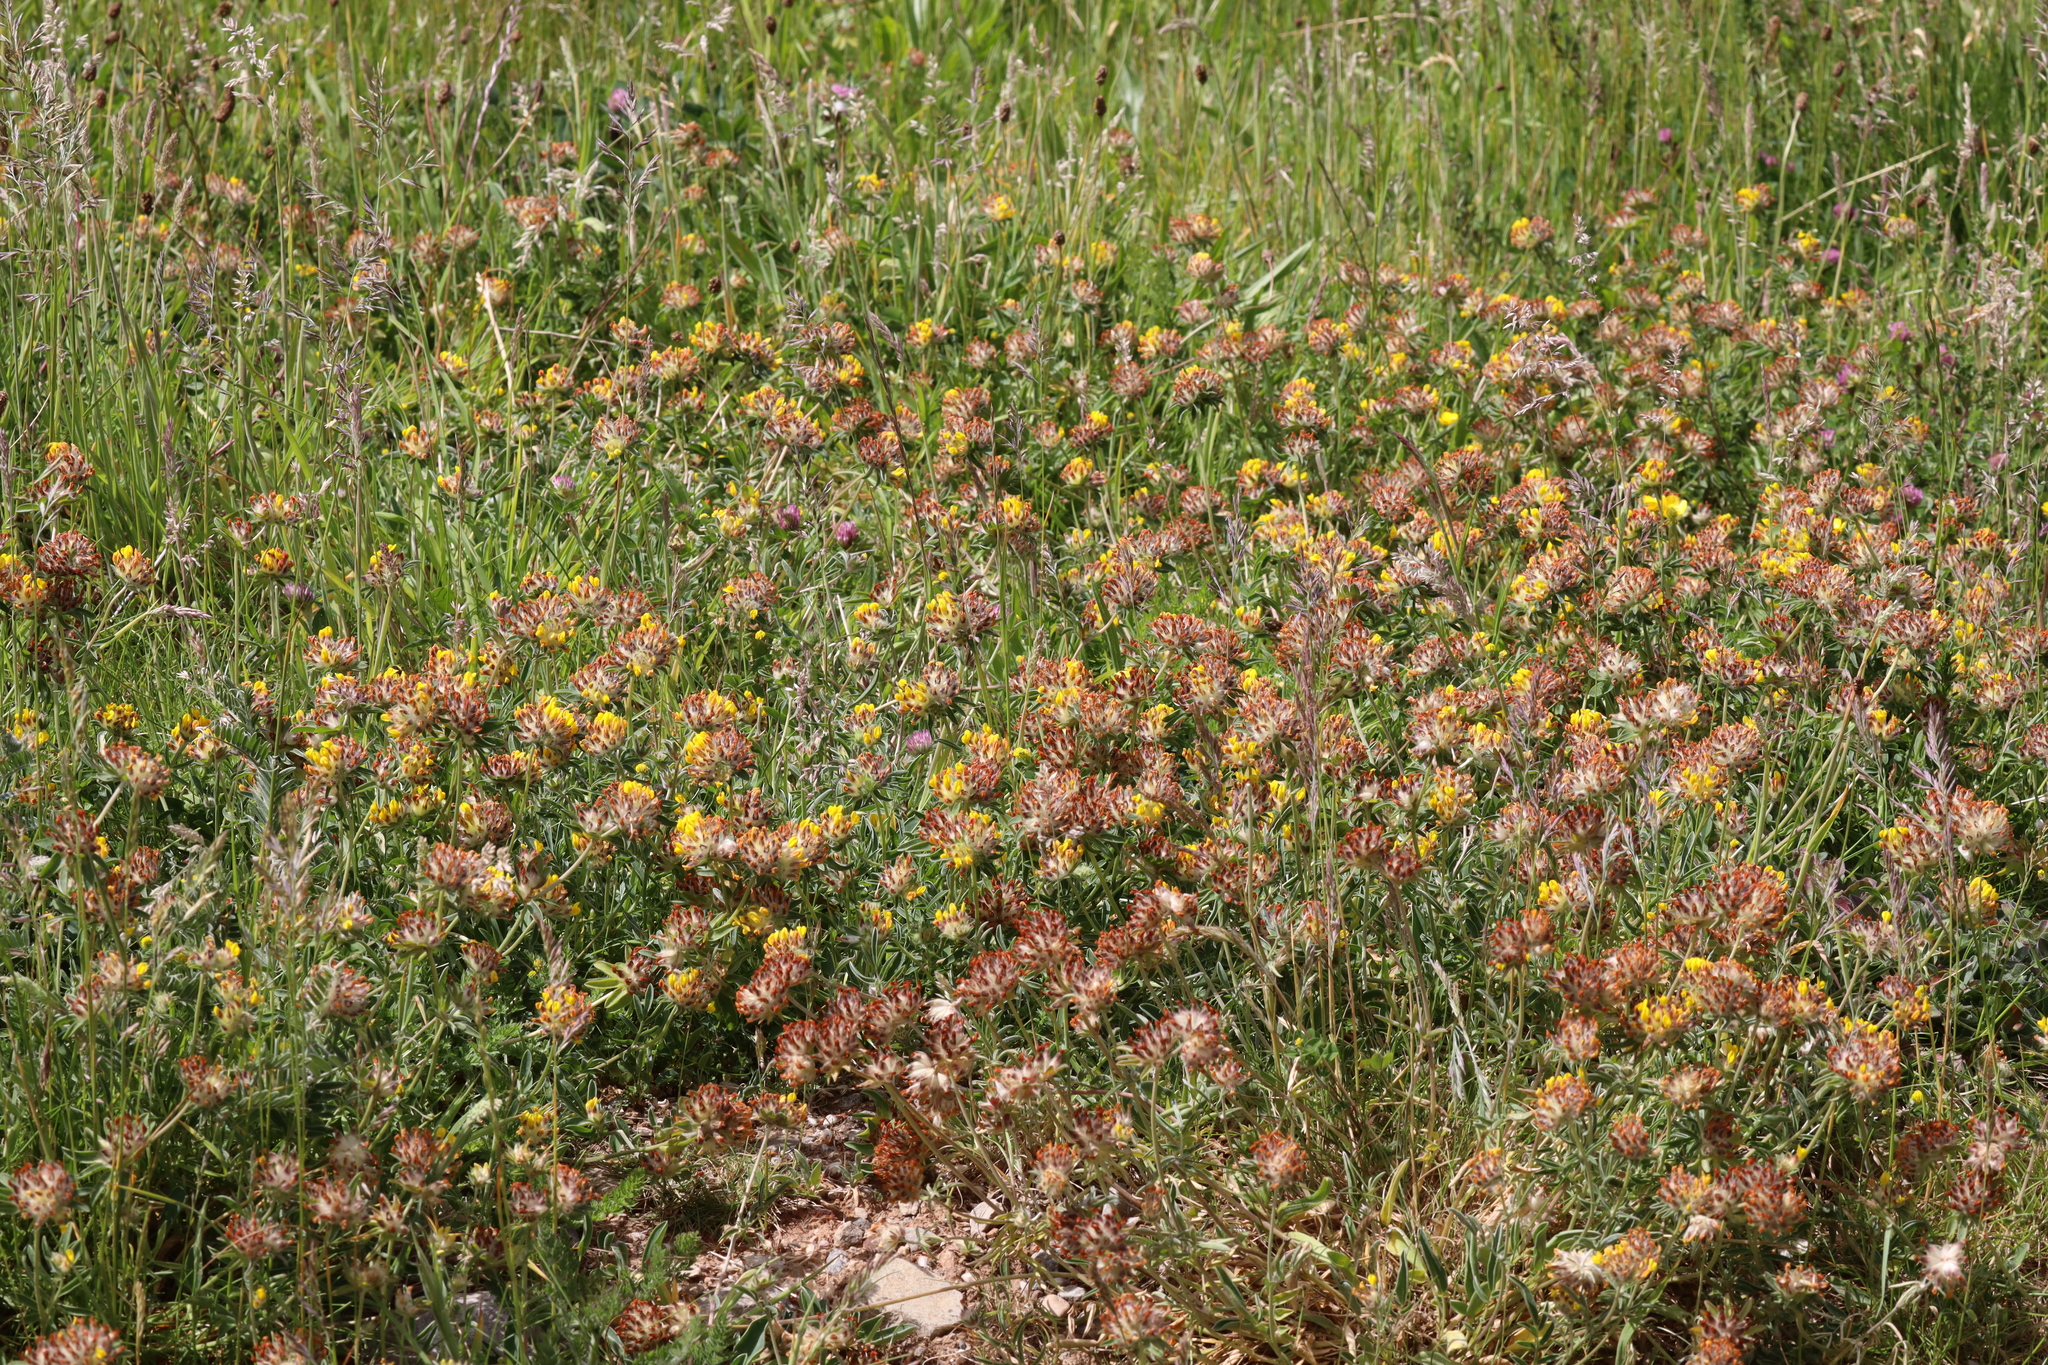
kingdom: Plantae
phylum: Tracheophyta
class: Magnoliopsida
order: Fabales
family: Fabaceae
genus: Anthyllis
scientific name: Anthyllis vulneraria
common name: Kidney vetch
